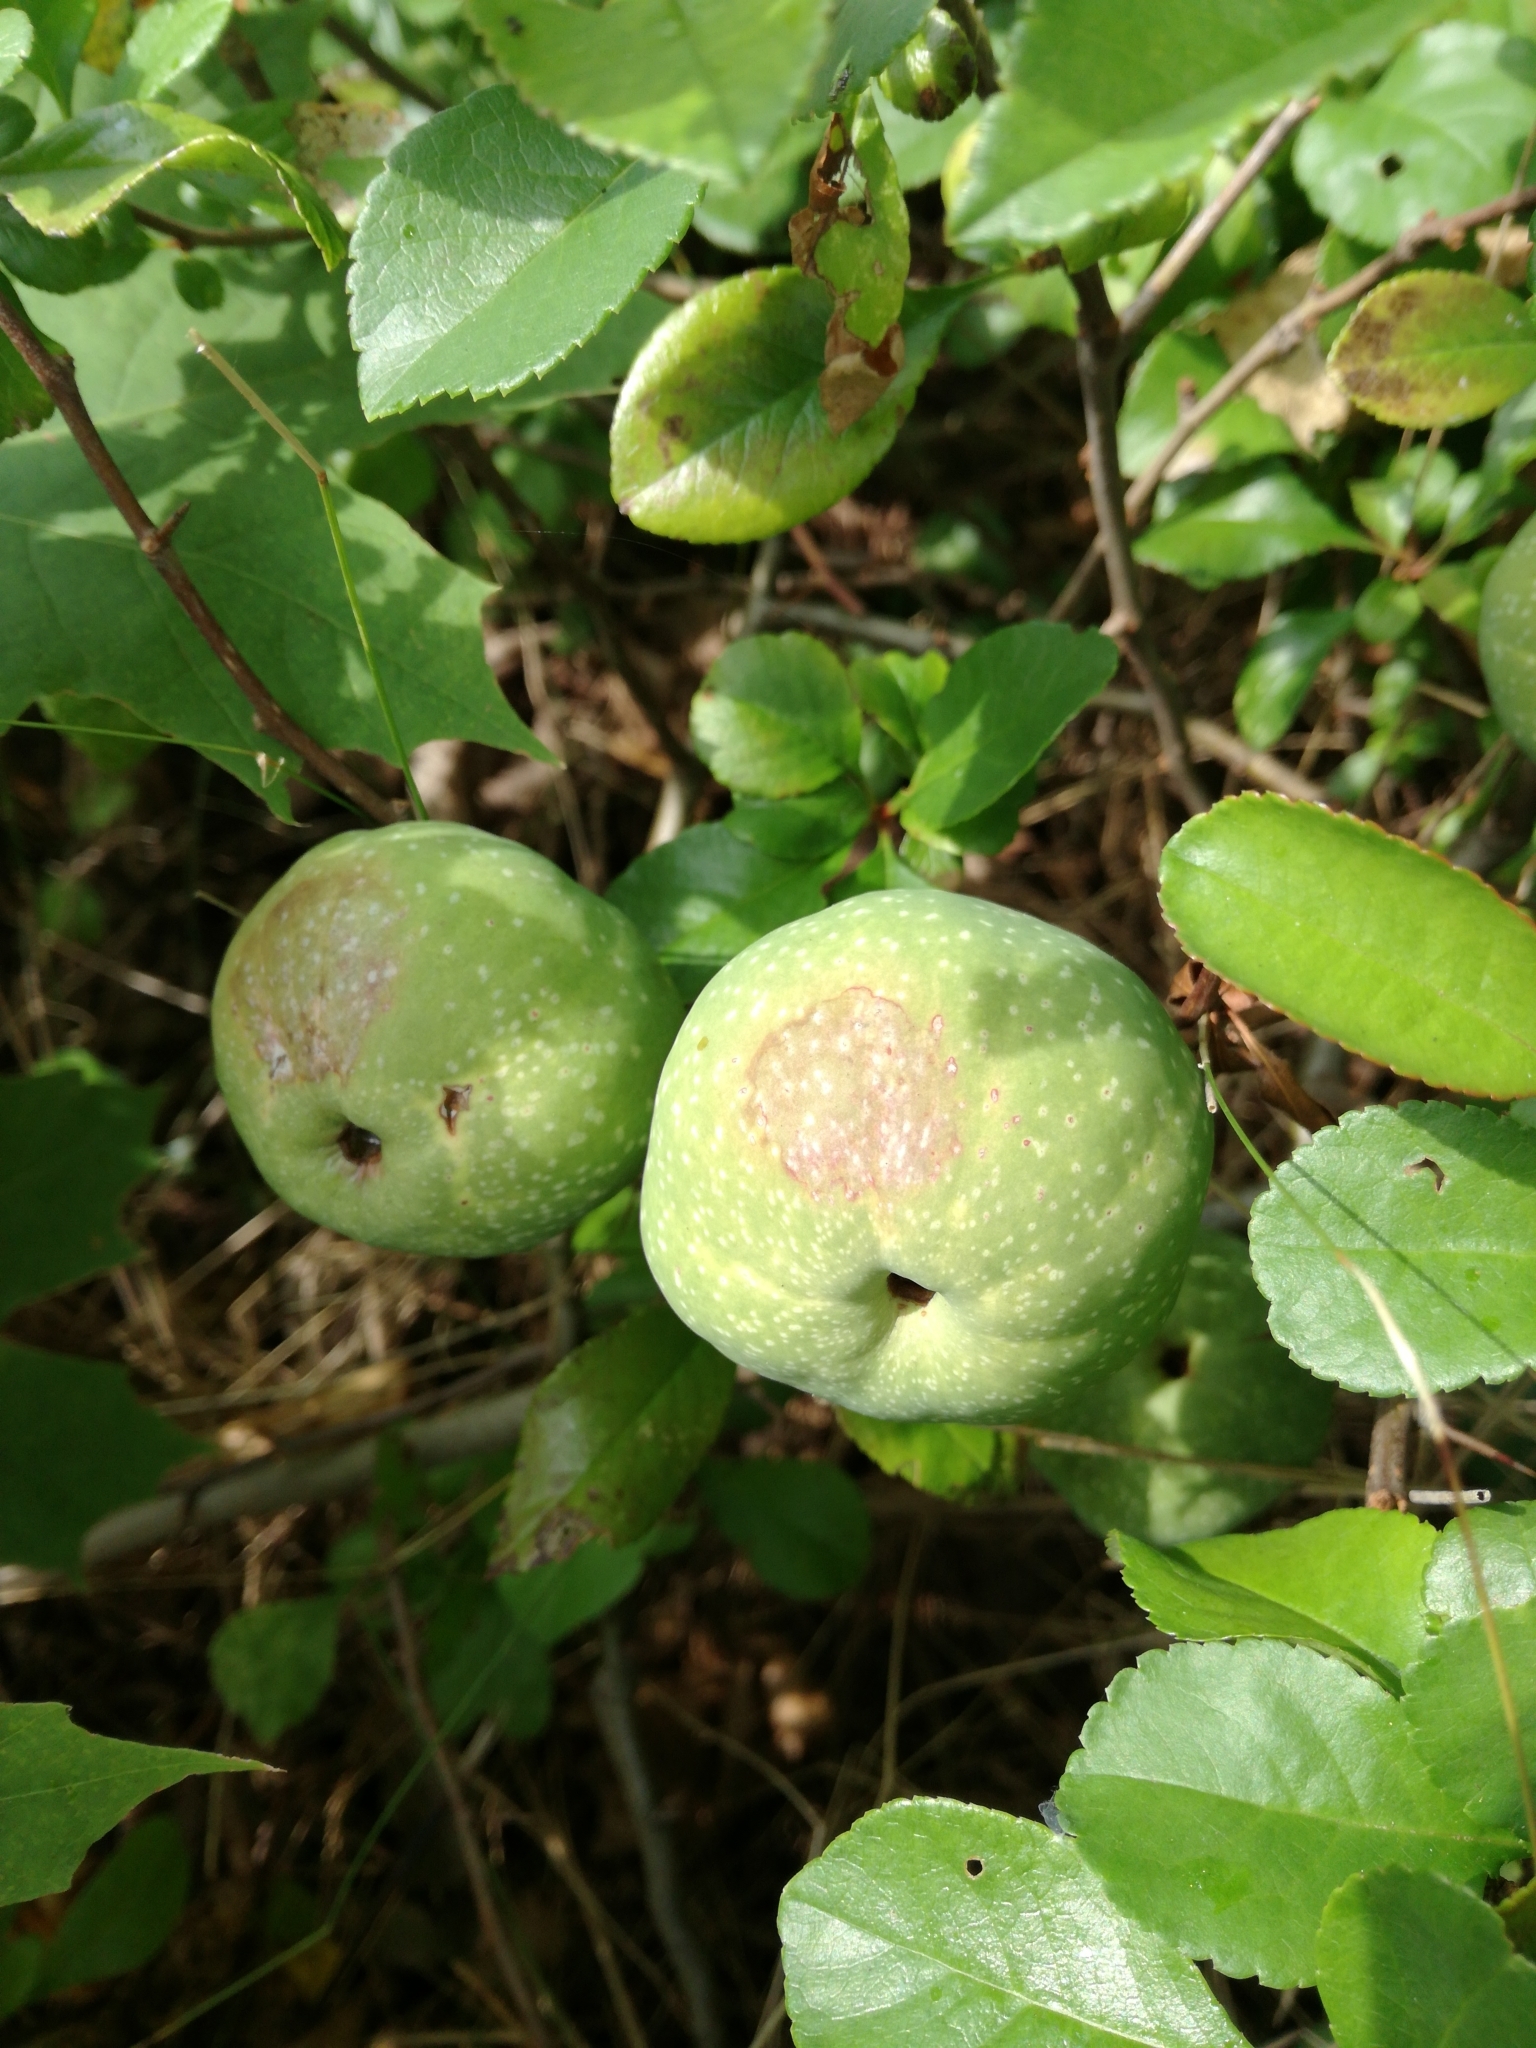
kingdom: Plantae
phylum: Tracheophyta
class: Magnoliopsida
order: Rosales
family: Rosaceae
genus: Chaenomeles
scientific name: Chaenomeles speciosa
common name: Japanese quince
